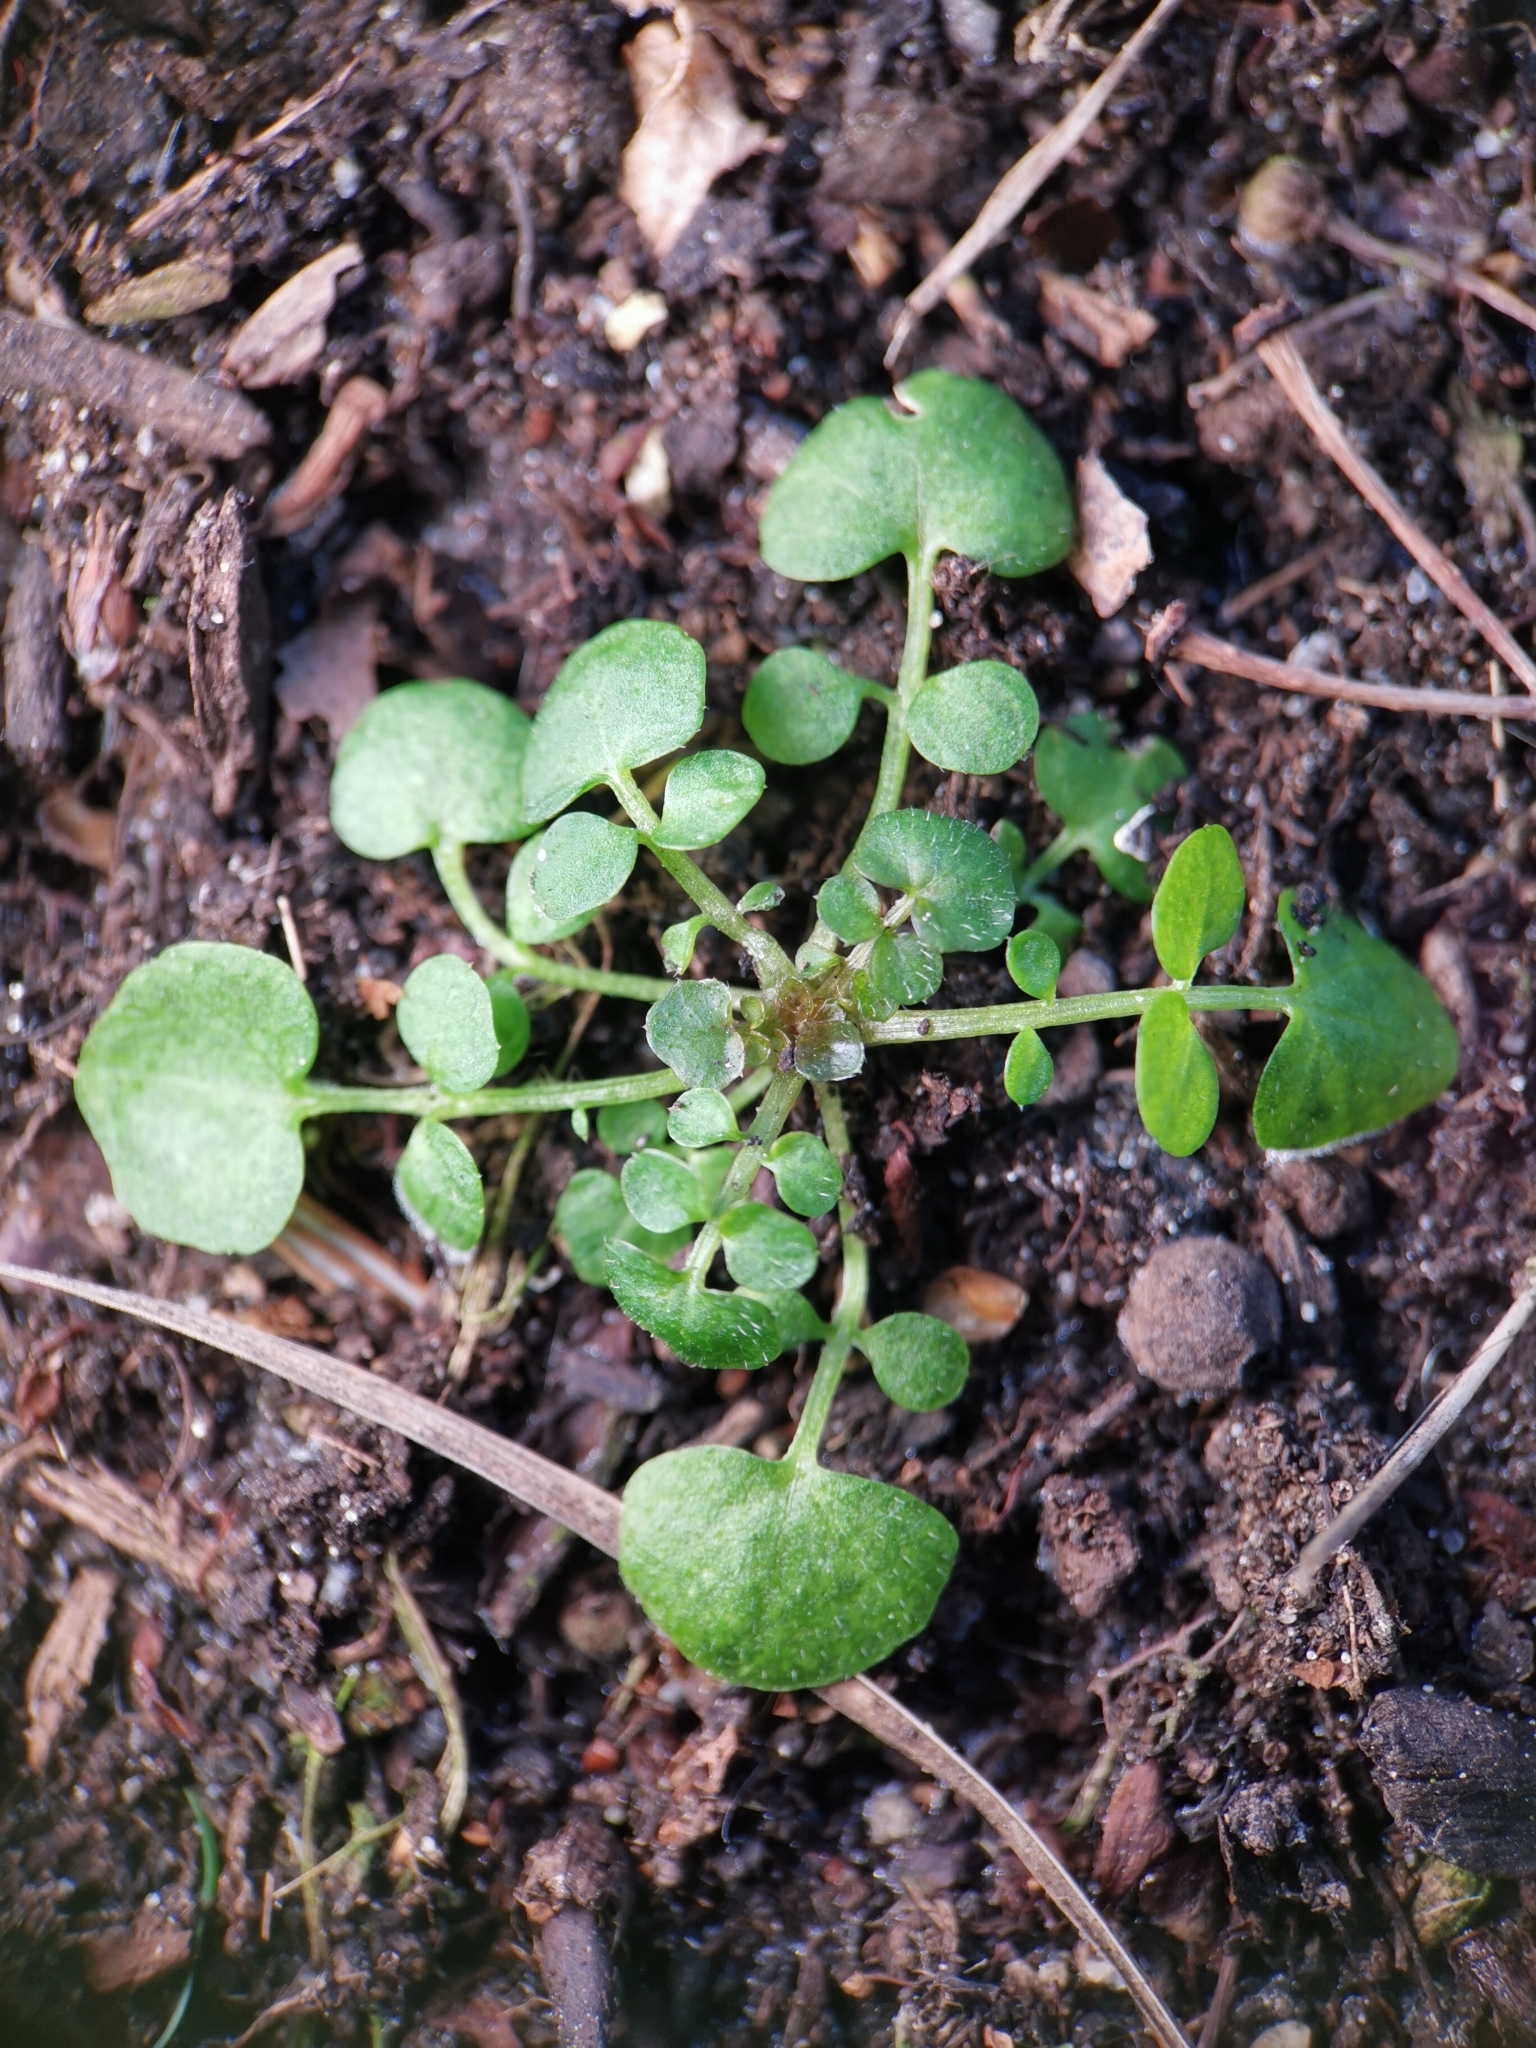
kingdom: Plantae
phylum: Tracheophyta
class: Magnoliopsida
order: Brassicales
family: Brassicaceae
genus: Cardamine
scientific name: Cardamine hirsuta
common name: Hairy bittercress
